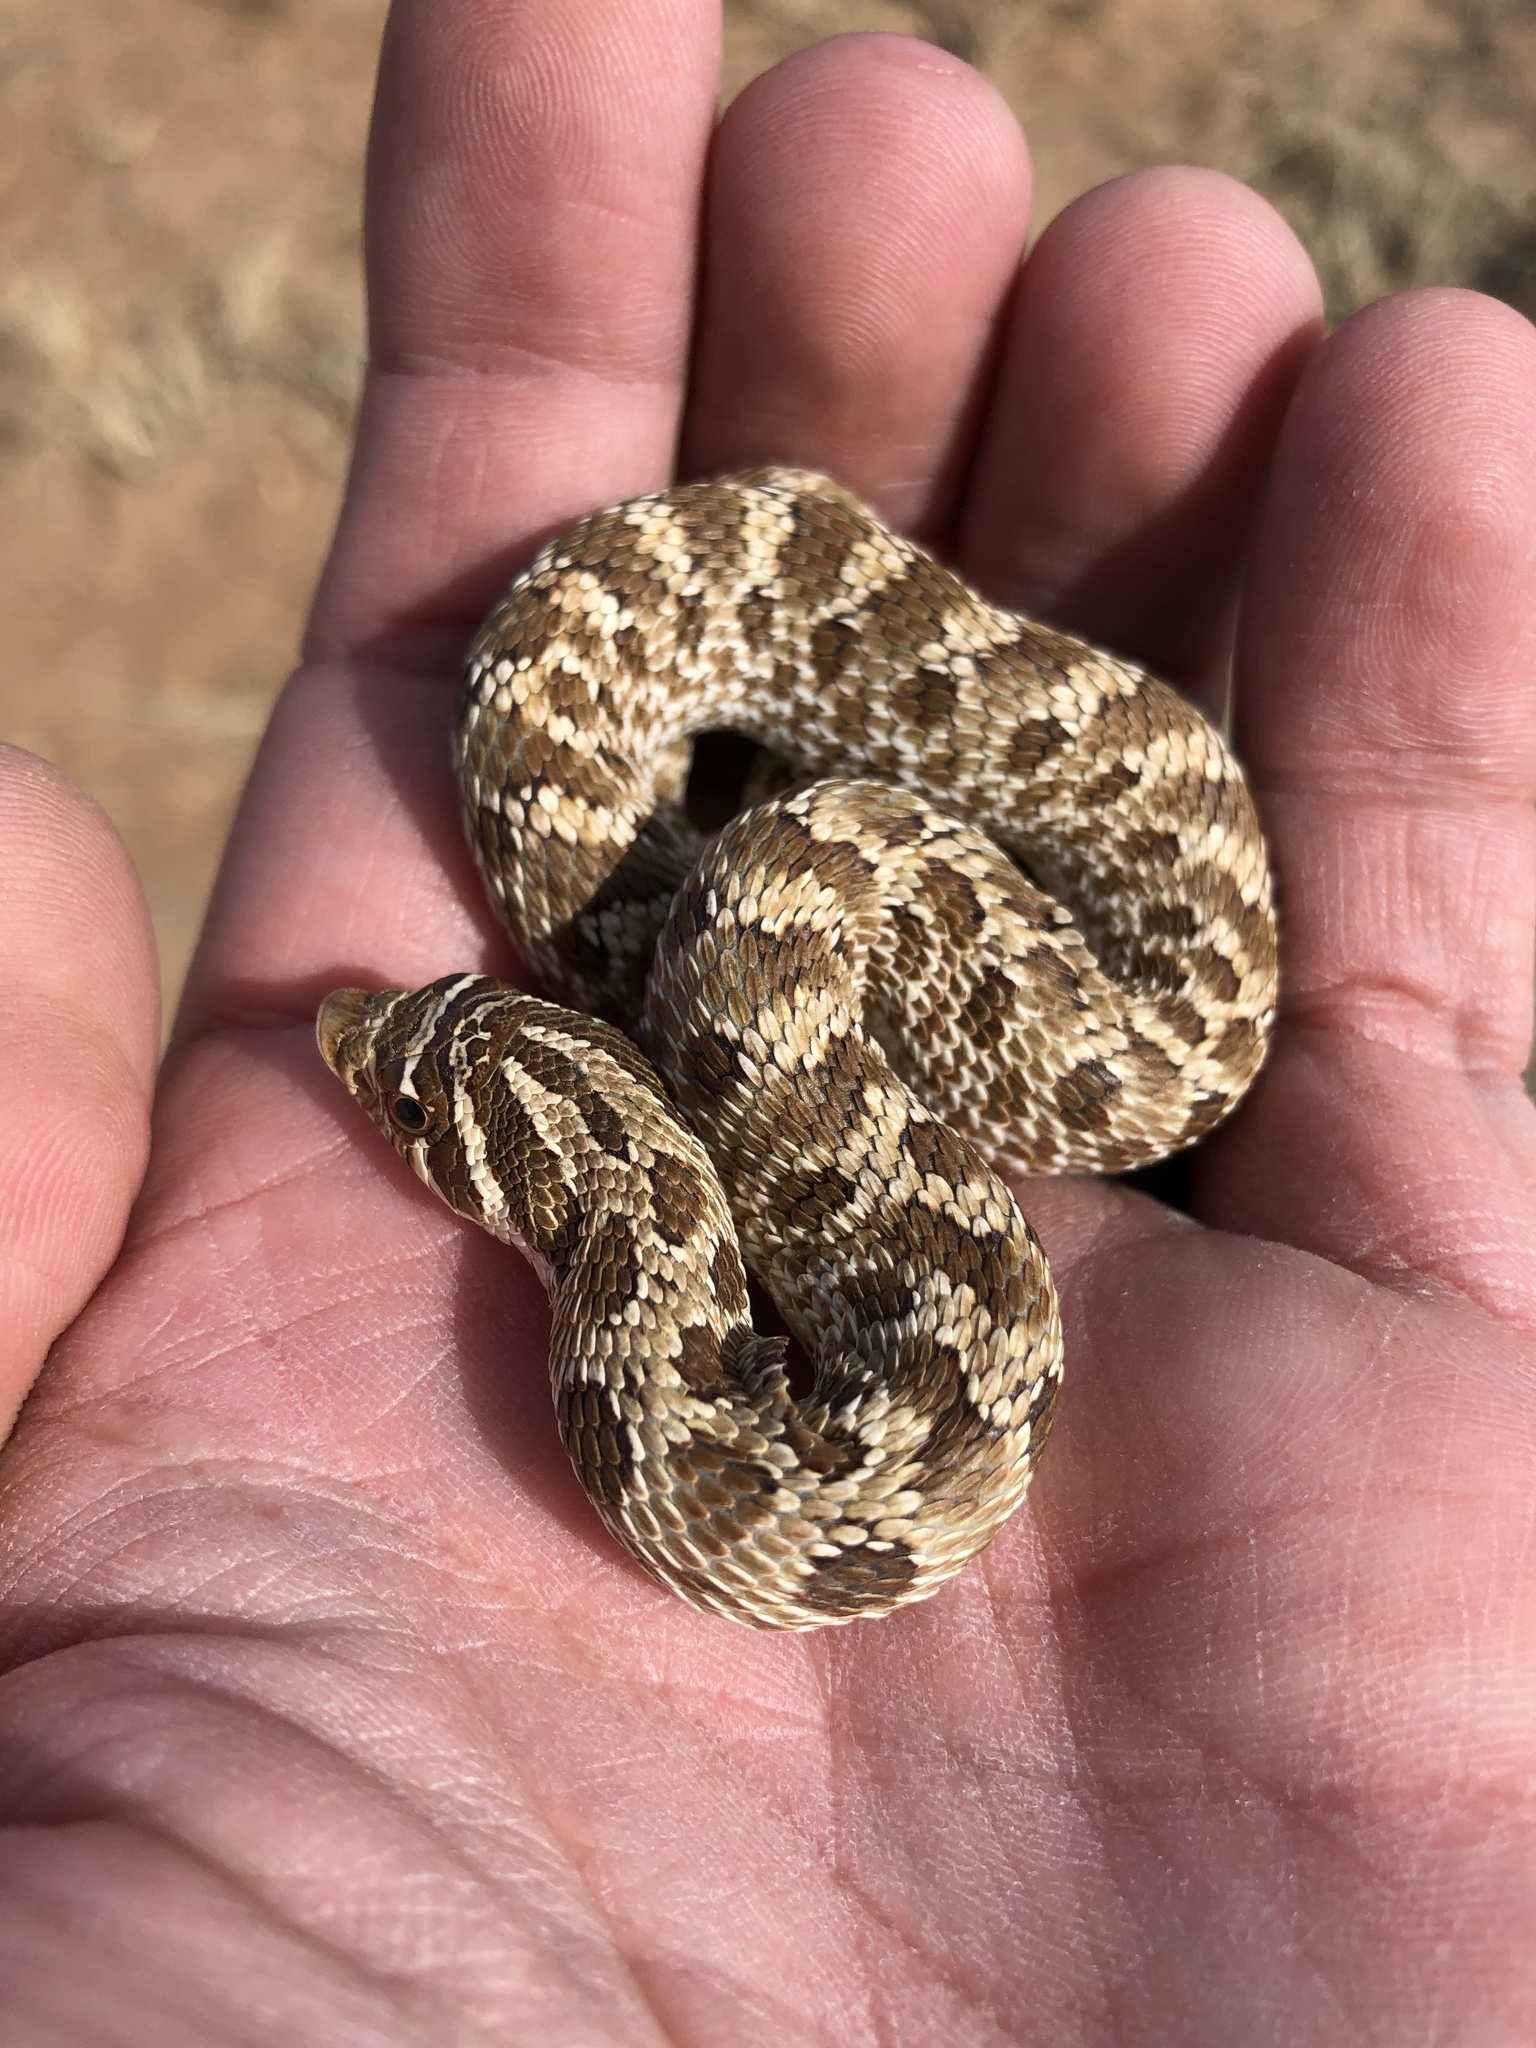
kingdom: Animalia
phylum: Chordata
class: Squamata
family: Colubridae
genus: Heterodon
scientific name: Heterodon nasicus
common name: Western hognose snake
